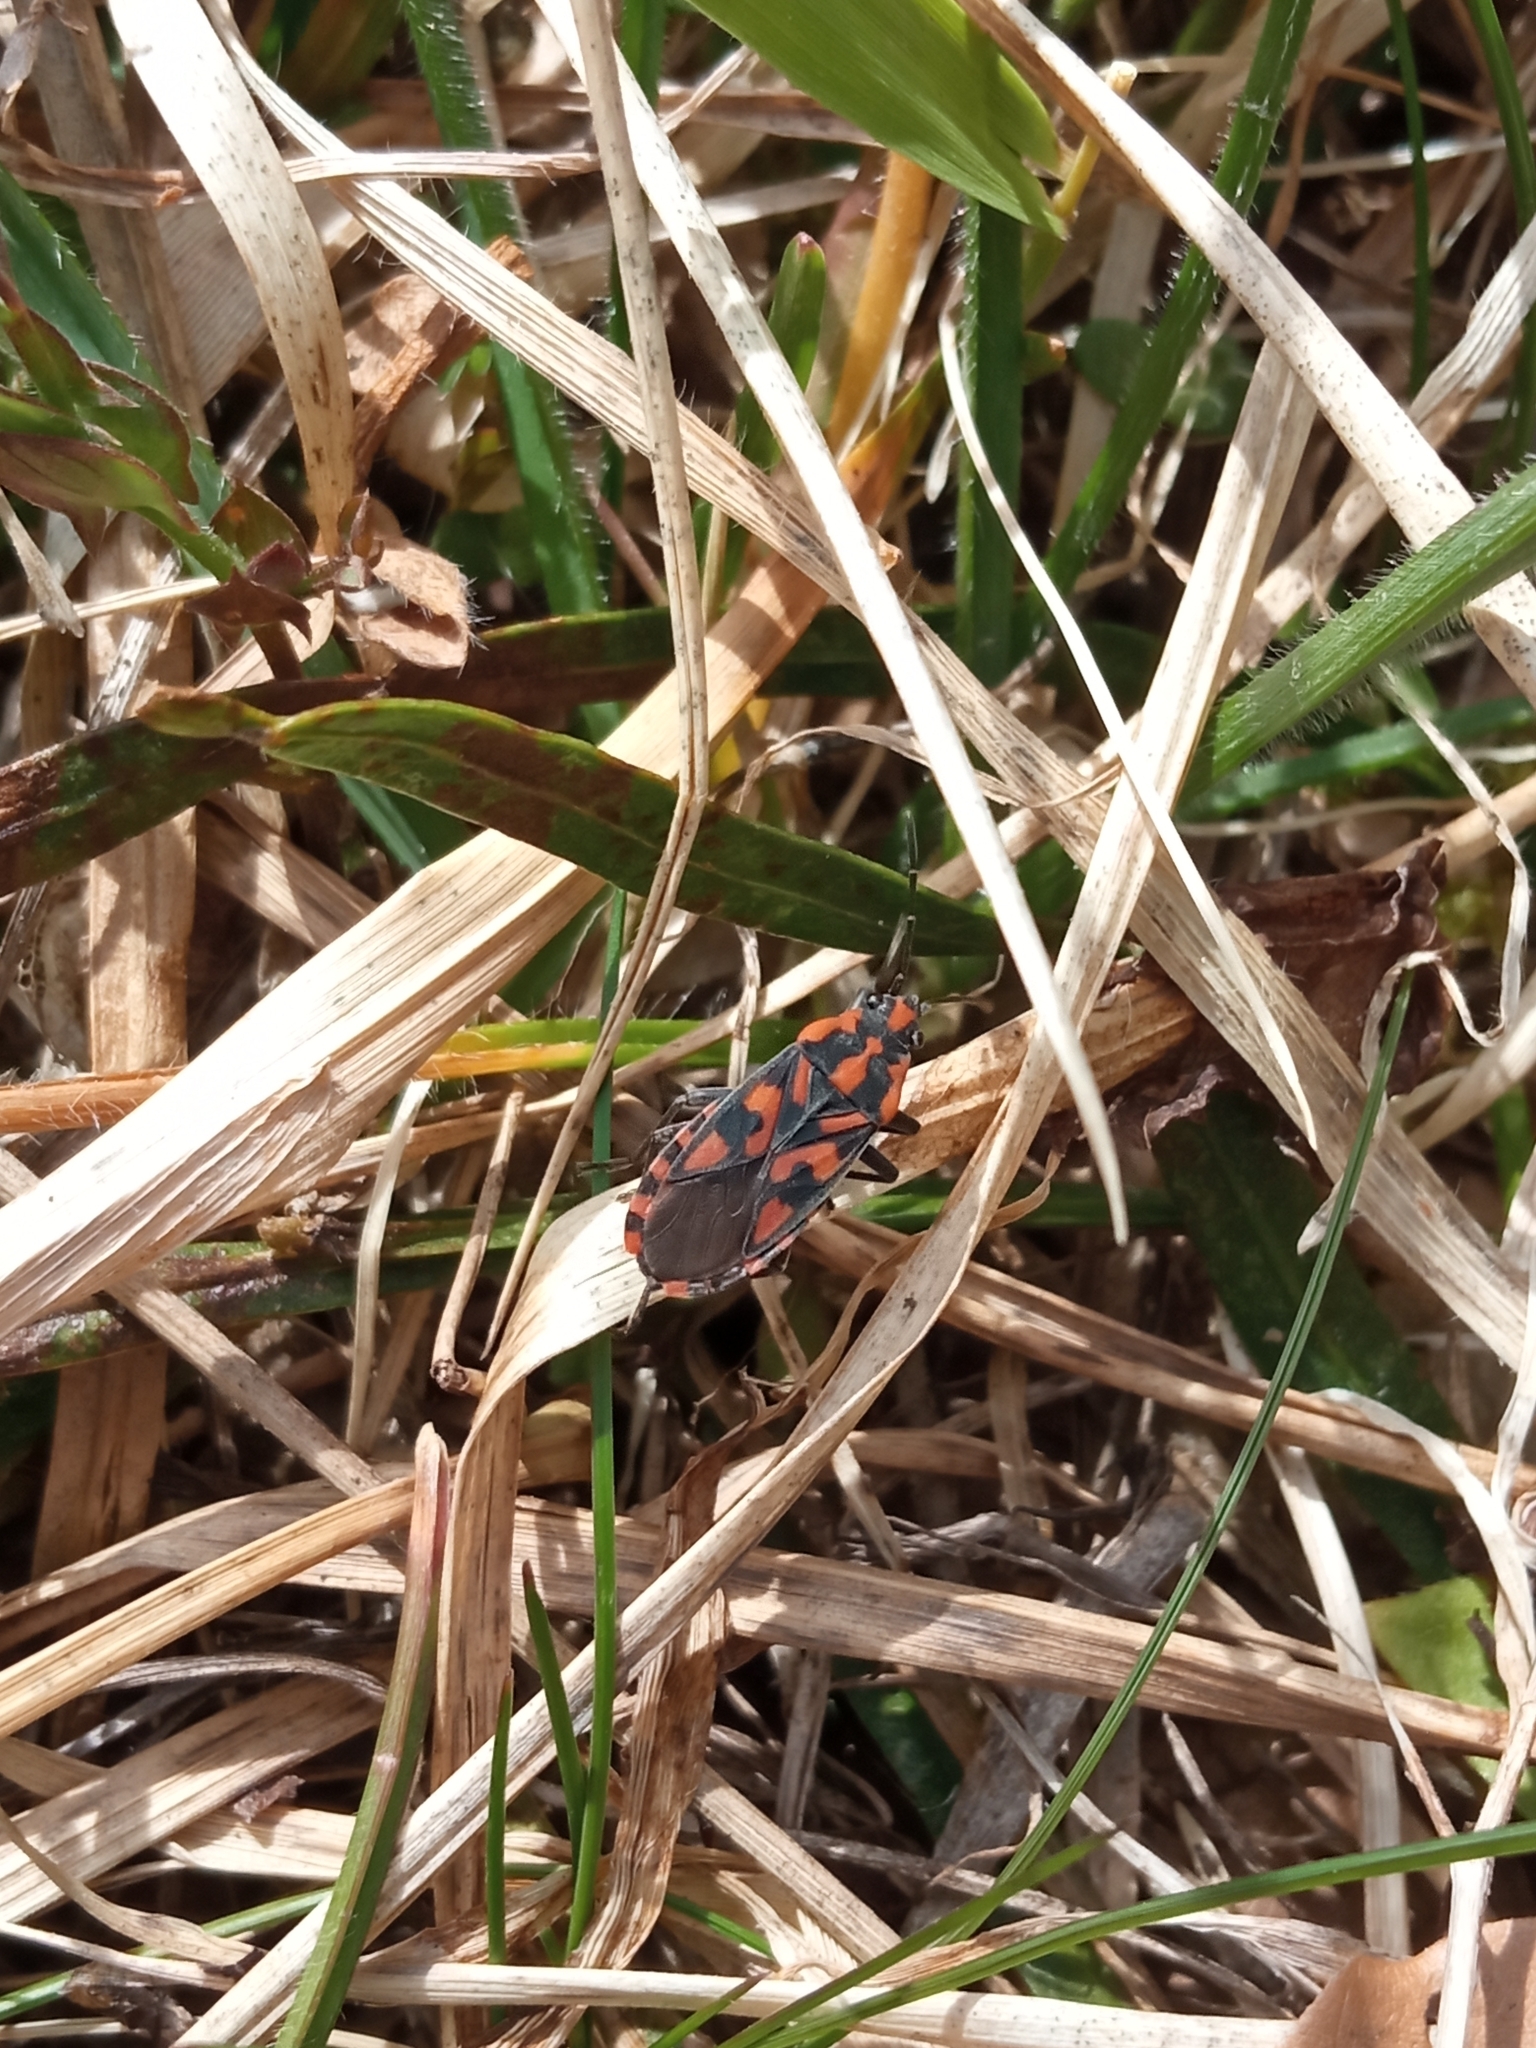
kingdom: Animalia
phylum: Arthropoda
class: Insecta
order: Hemiptera
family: Lygaeidae
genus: Spilostethus
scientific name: Spilostethus saxatilis
